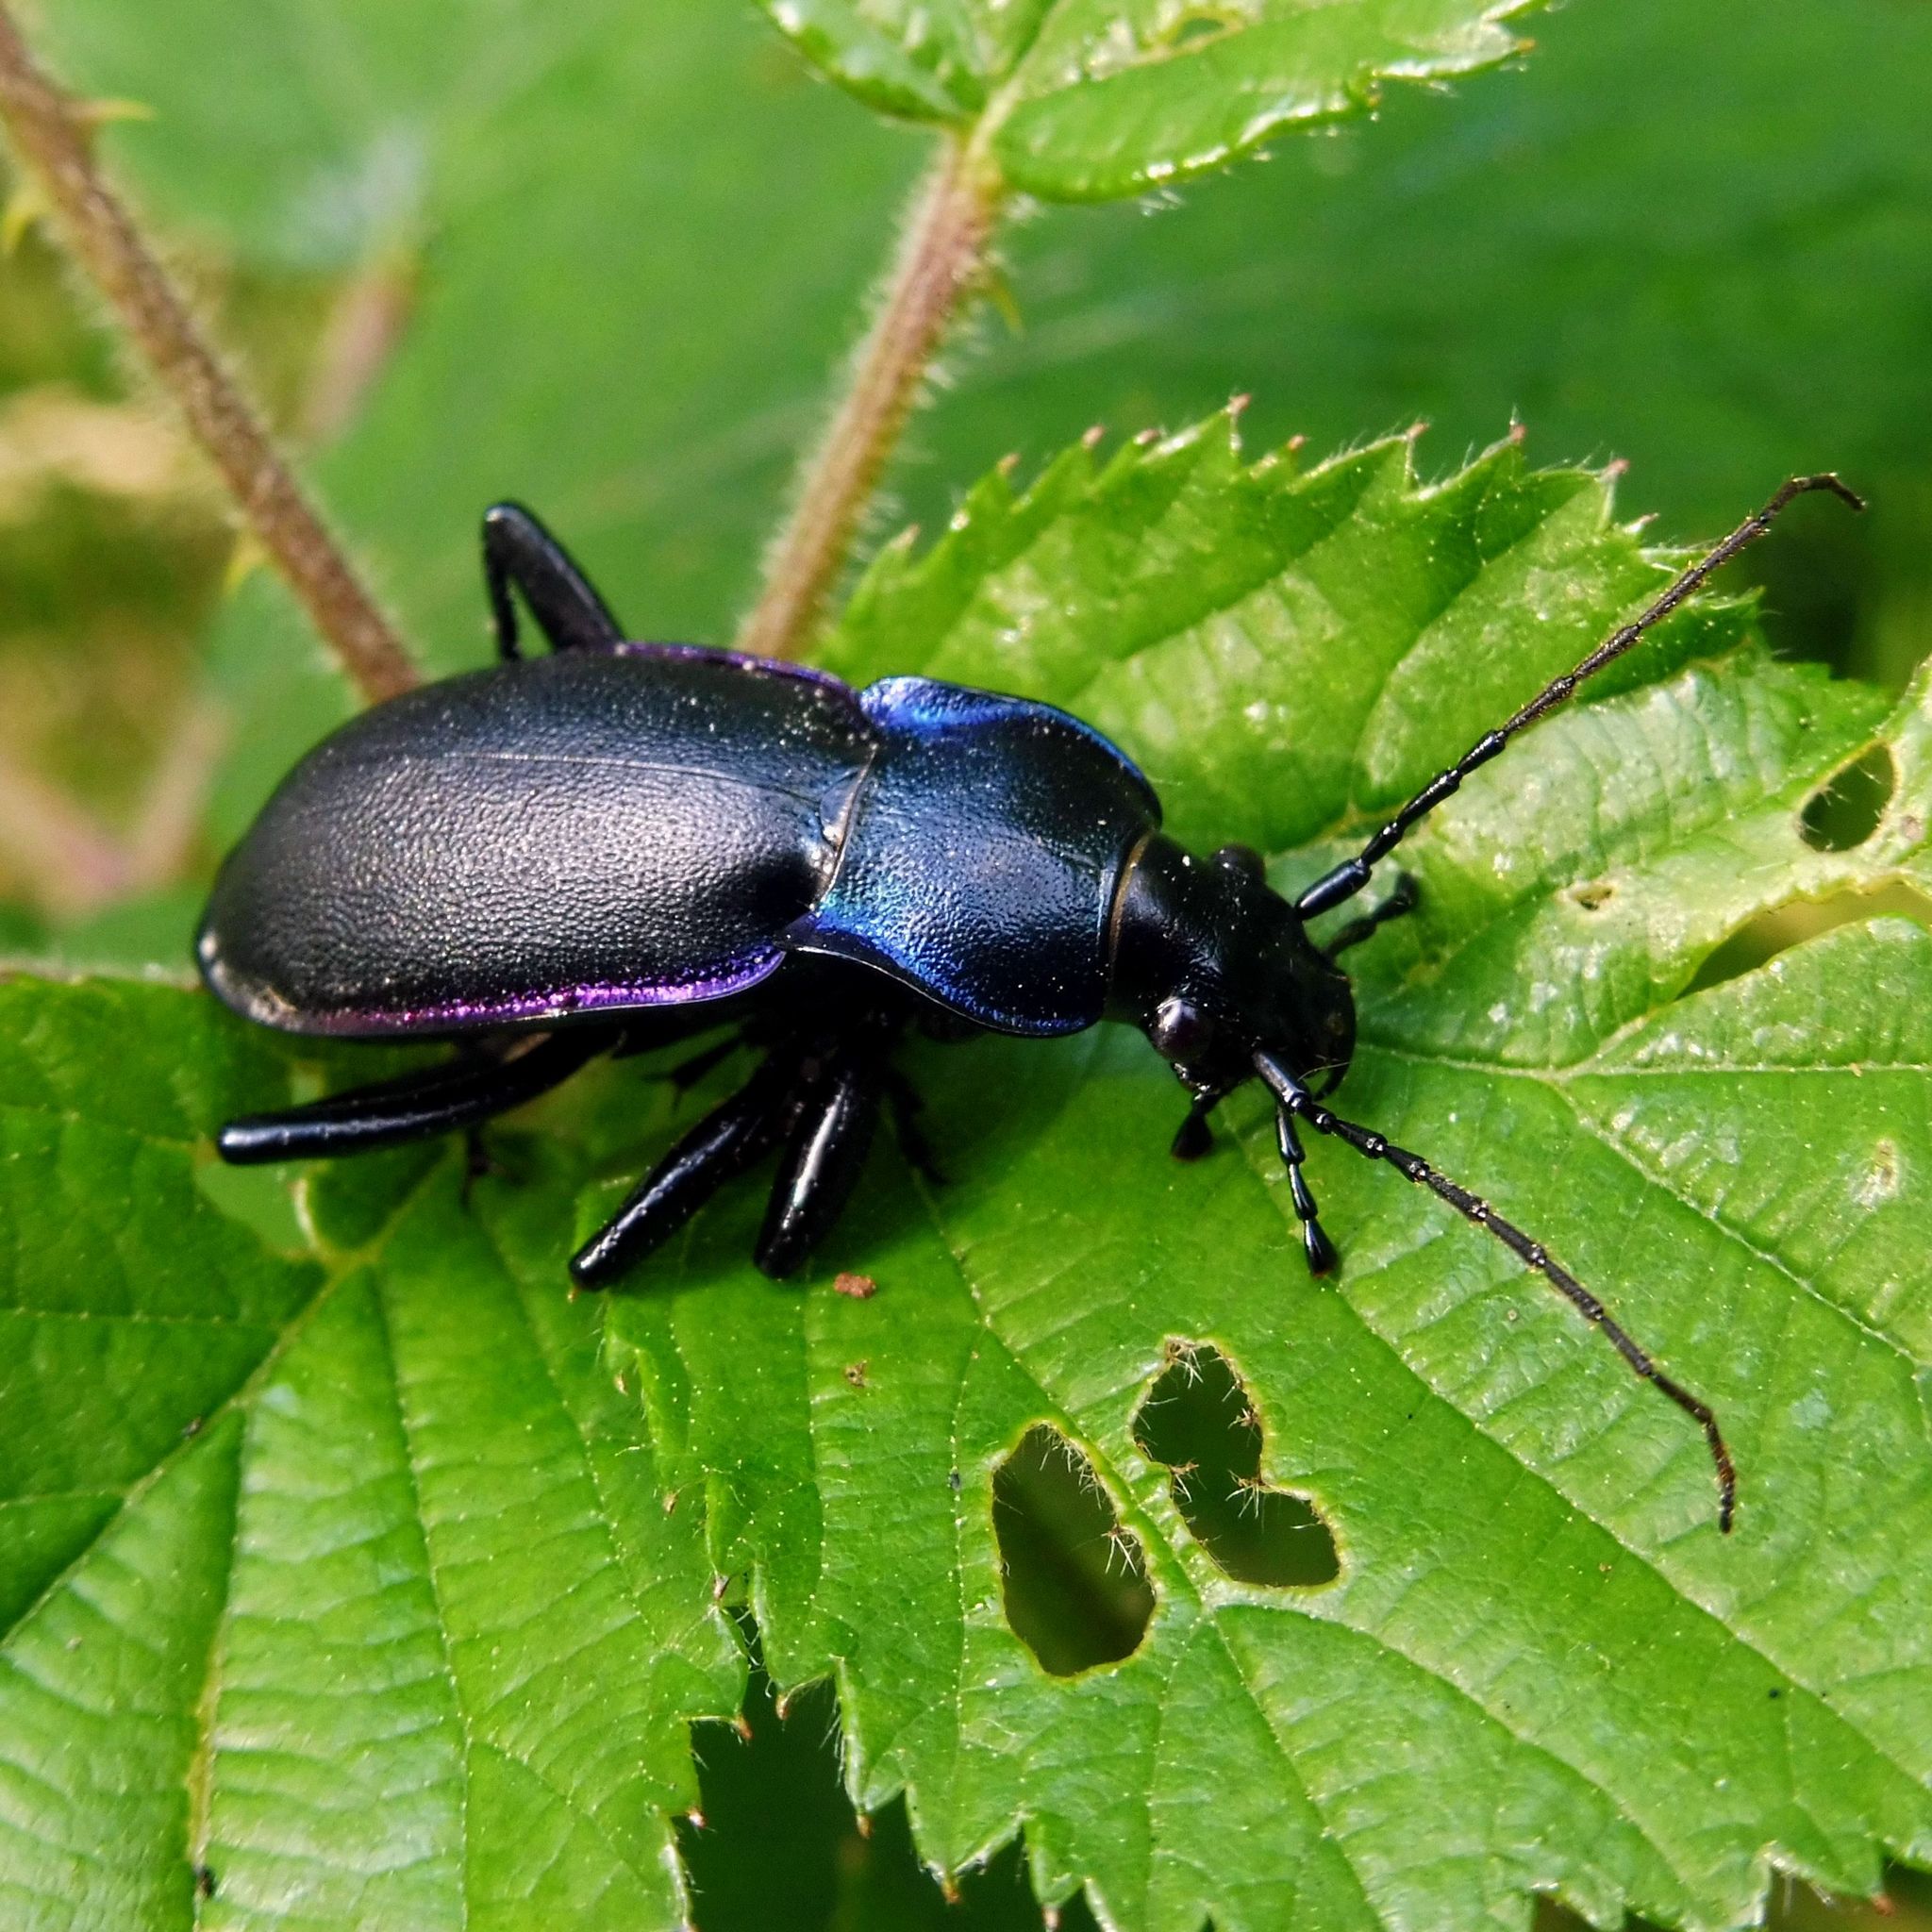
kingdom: Animalia
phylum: Arthropoda
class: Insecta
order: Coleoptera
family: Carabidae
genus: Carabus
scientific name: Carabus violaceus
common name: Violet ground beetle
